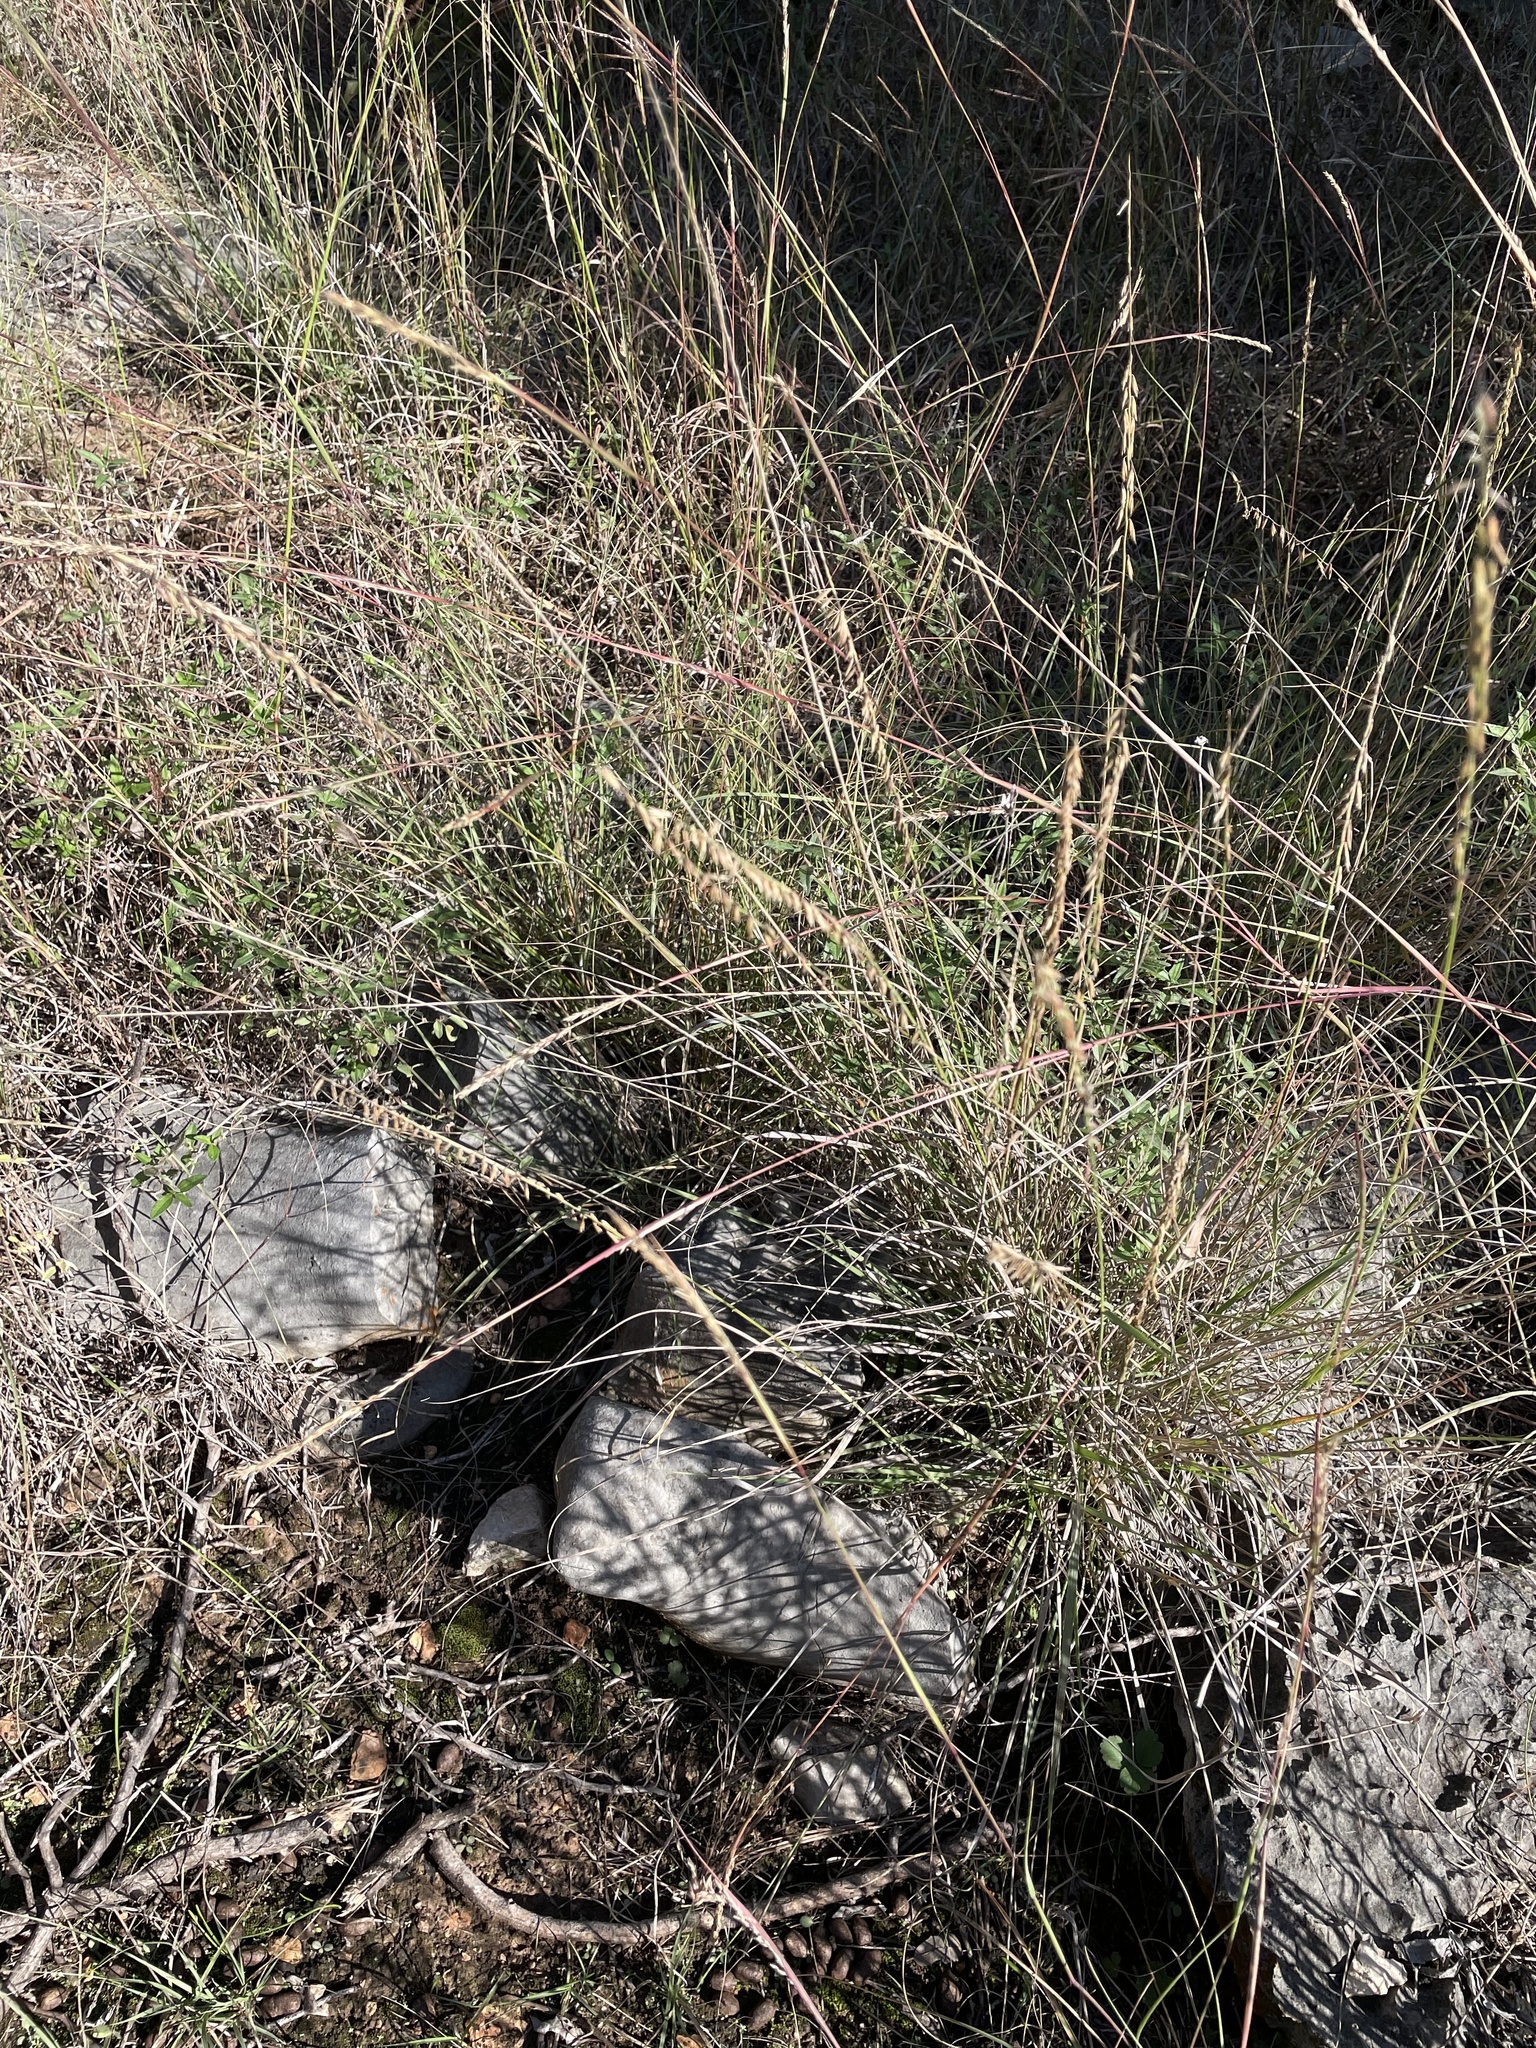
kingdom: Plantae
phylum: Tracheophyta
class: Liliopsida
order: Poales
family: Poaceae
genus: Bouteloua
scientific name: Bouteloua curtipendula
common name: Side-oats grama
